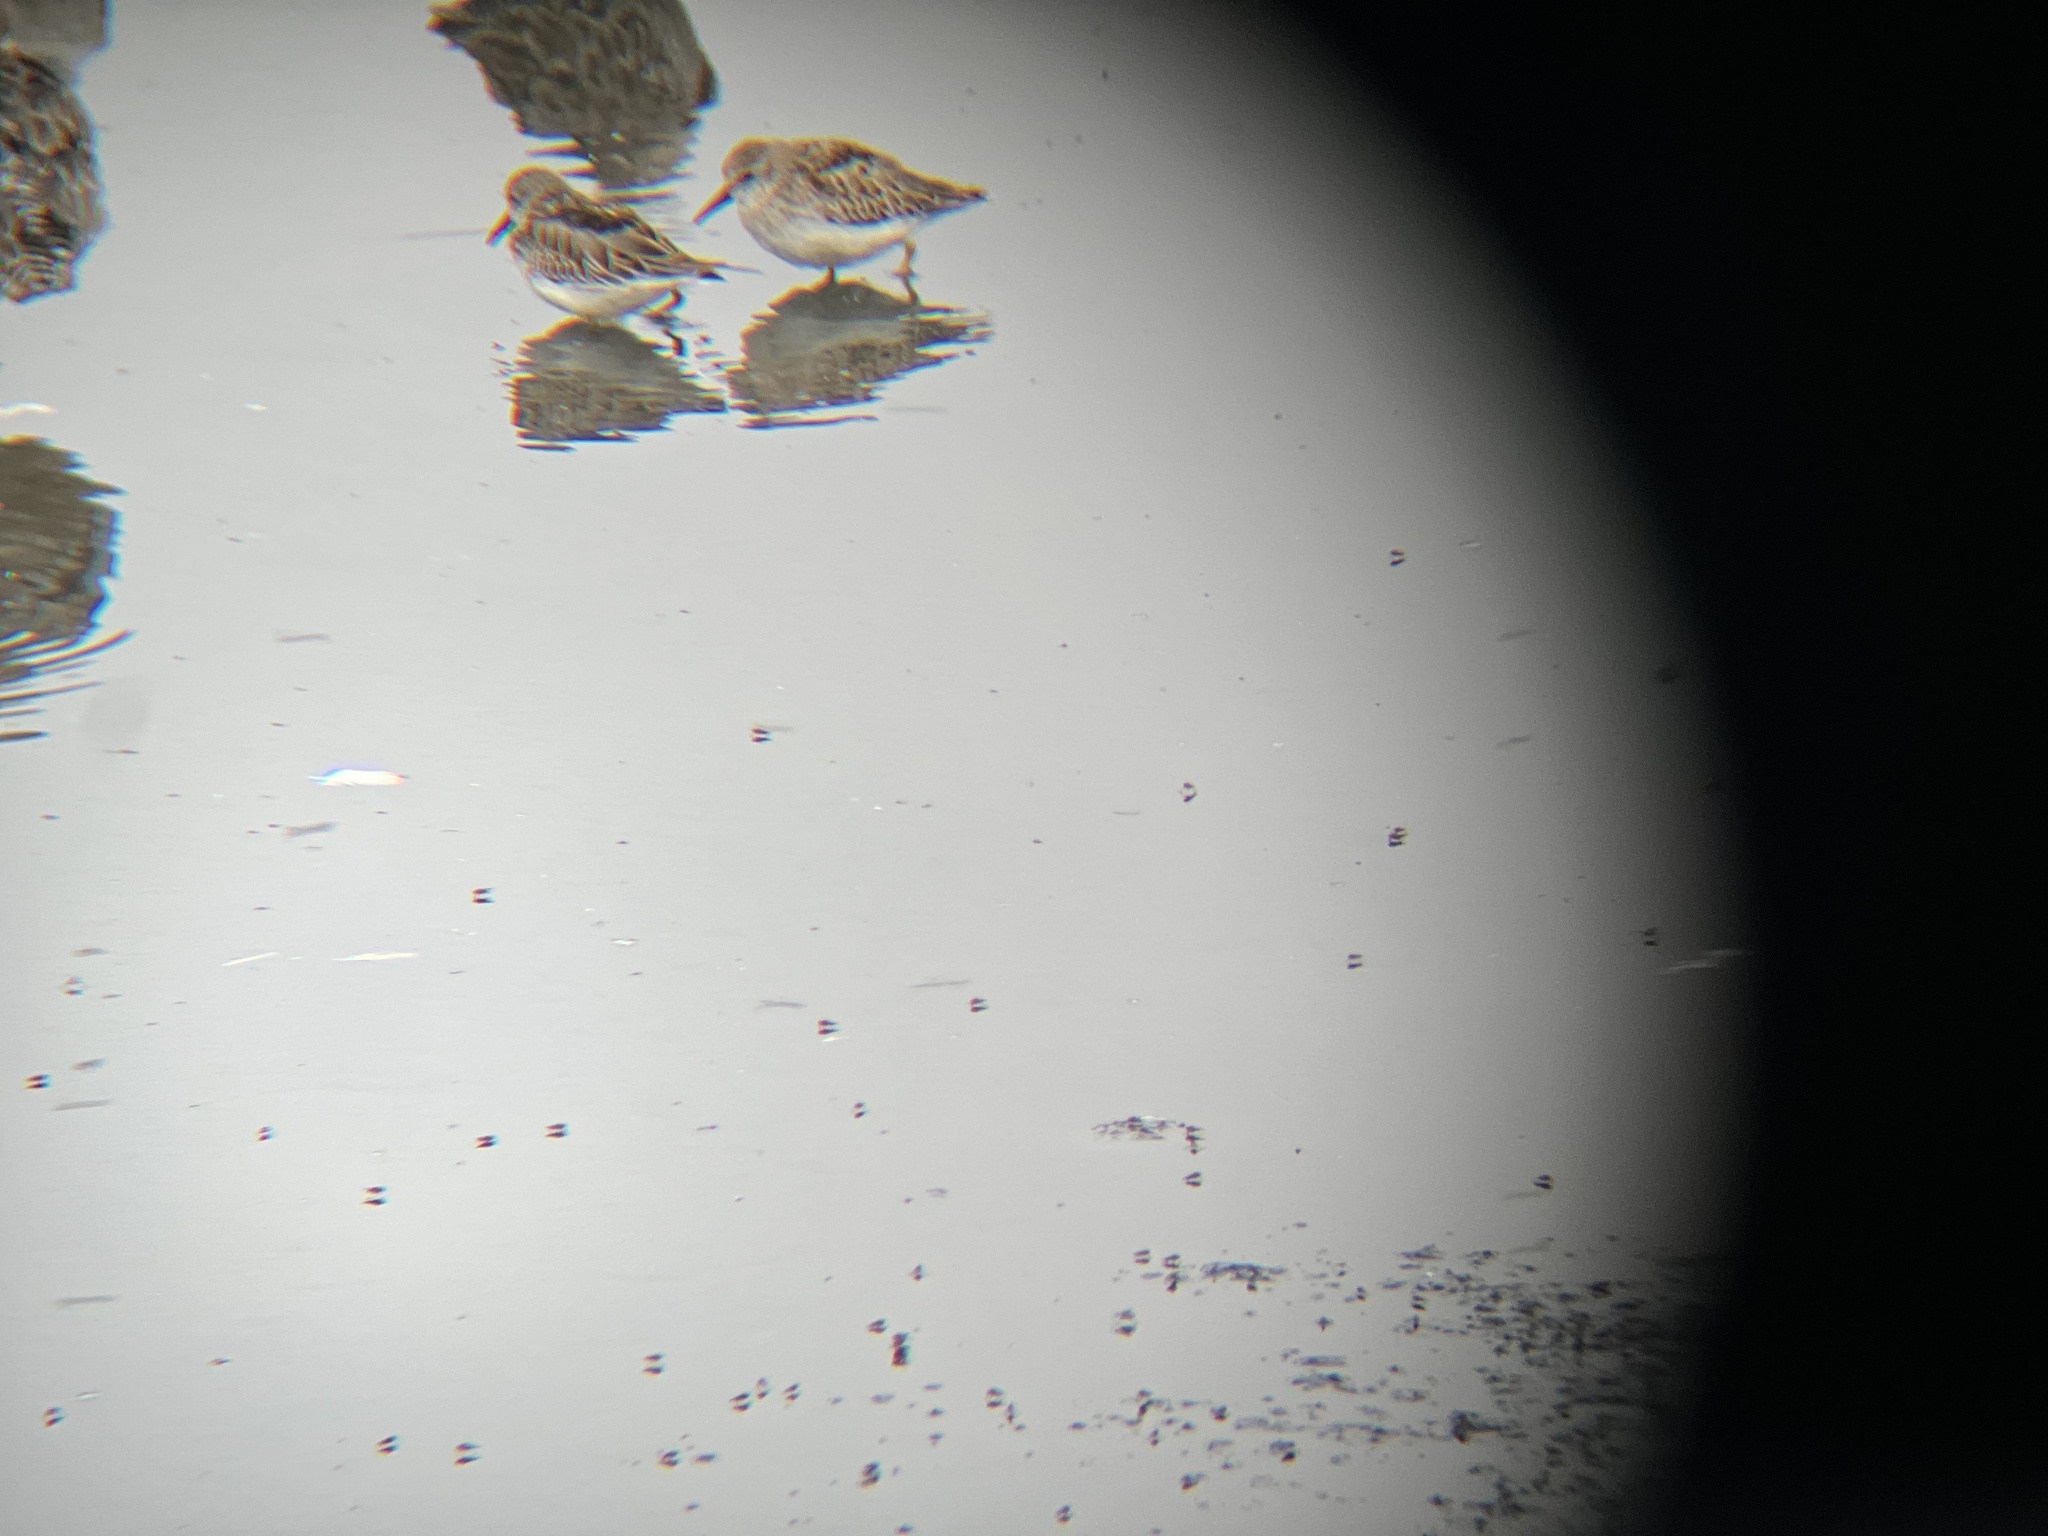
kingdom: Animalia
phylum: Chordata
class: Aves
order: Charadriiformes
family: Scolopacidae
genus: Calidris
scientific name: Calidris minutilla
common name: Least sandpiper
